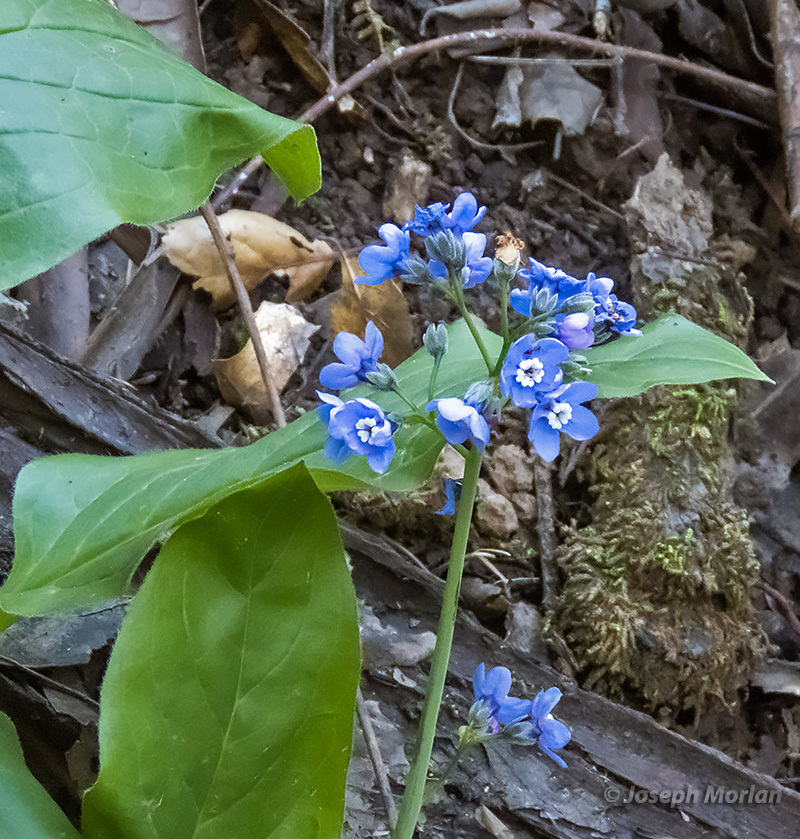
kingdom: Plantae
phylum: Tracheophyta
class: Magnoliopsida
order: Boraginales
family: Boraginaceae
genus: Adelinia
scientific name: Adelinia grande
